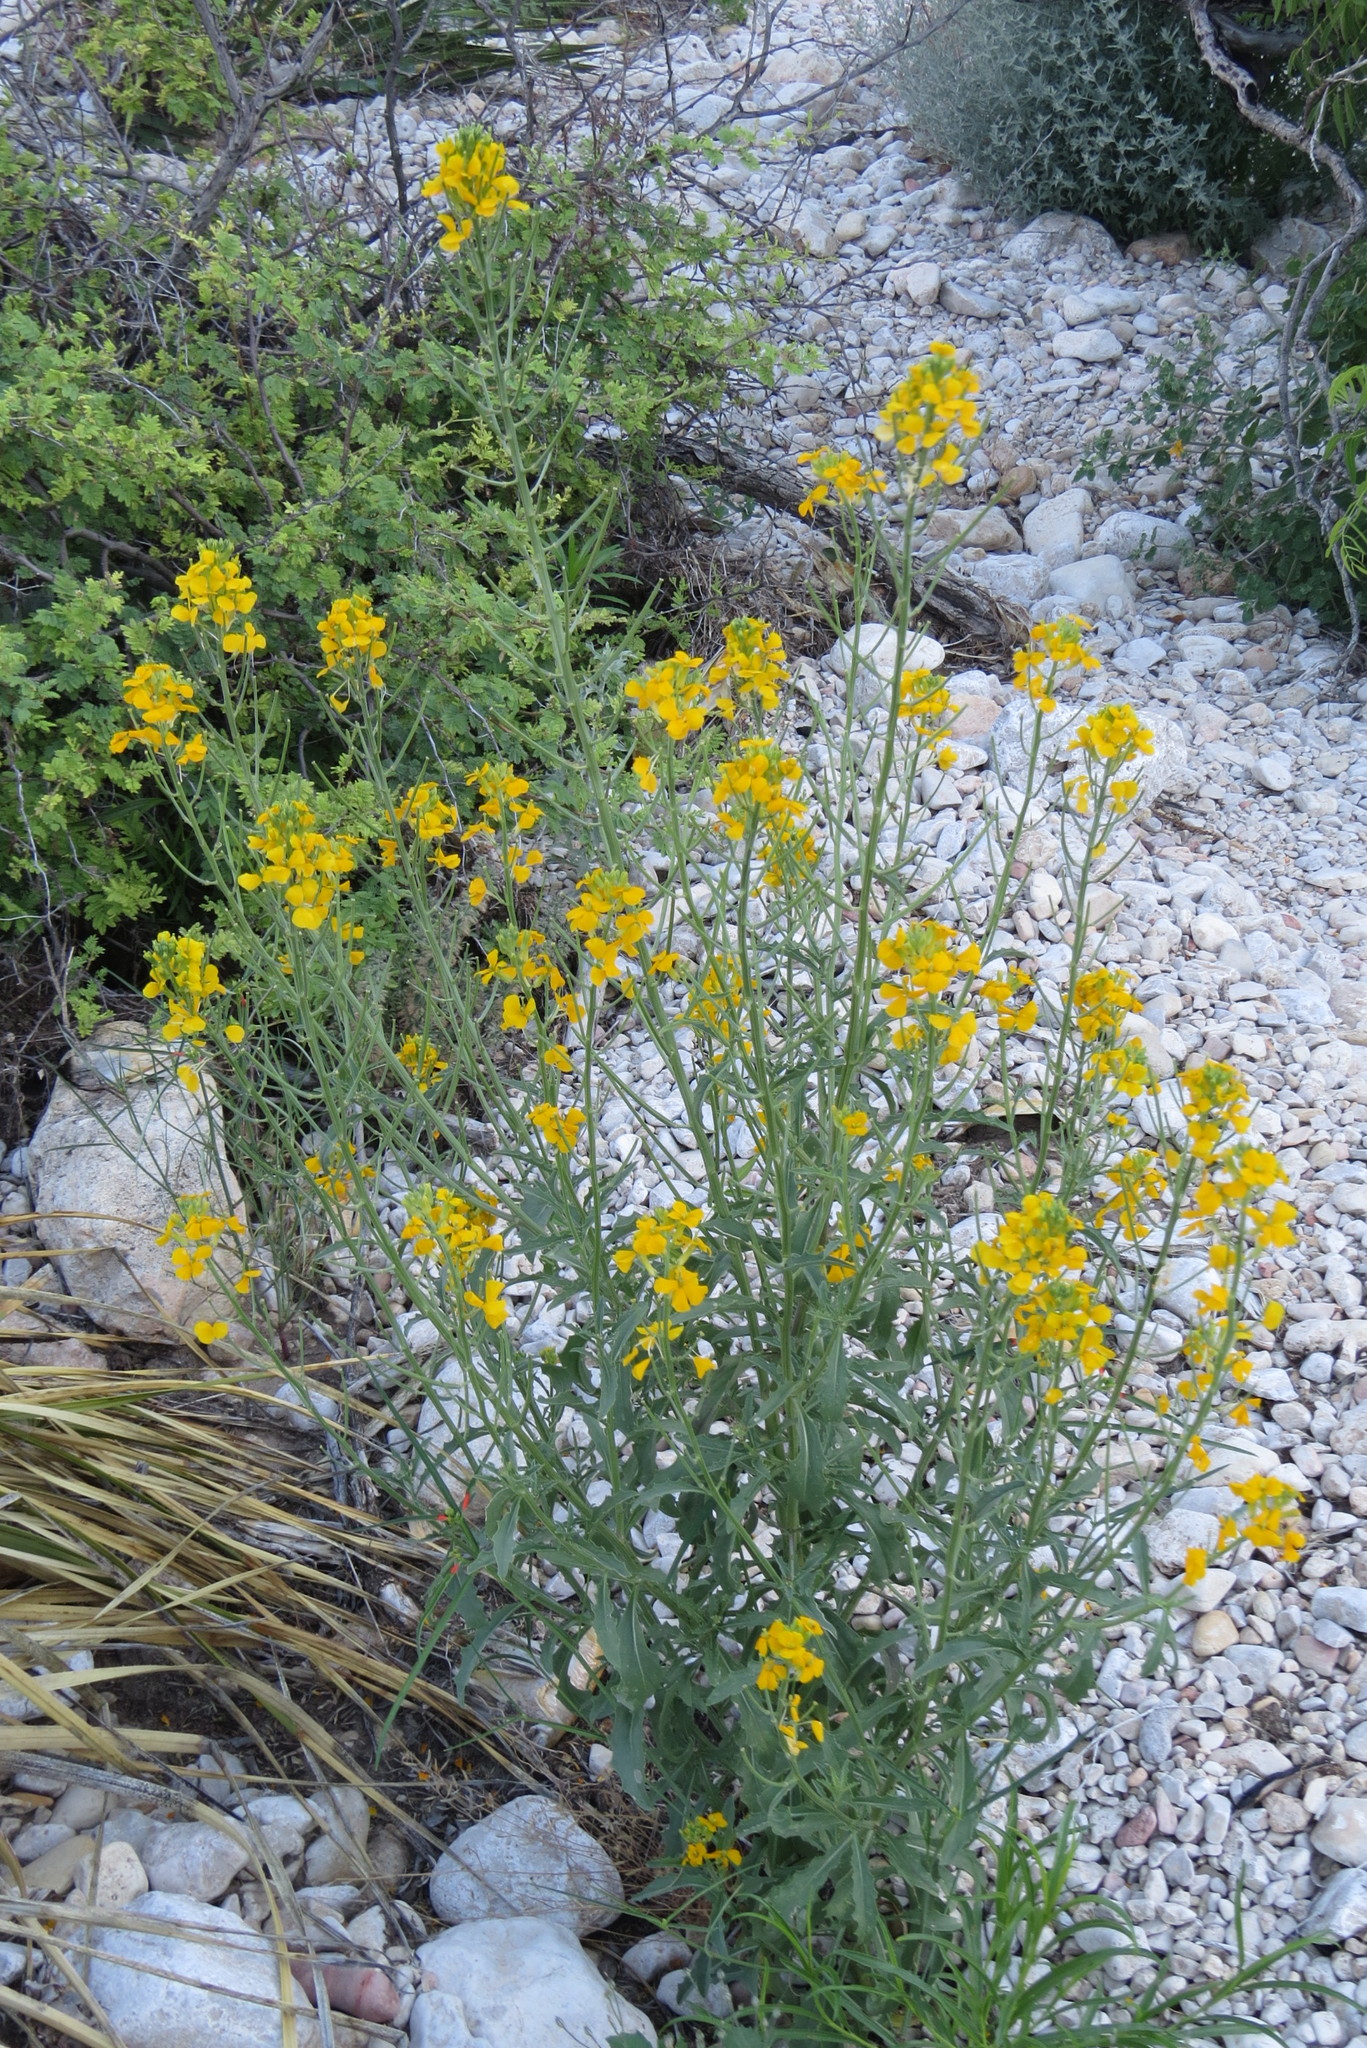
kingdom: Plantae
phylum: Tracheophyta
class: Magnoliopsida
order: Brassicales
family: Brassicaceae
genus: Erysimum
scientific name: Erysimum capitatum
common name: Western wallflower
